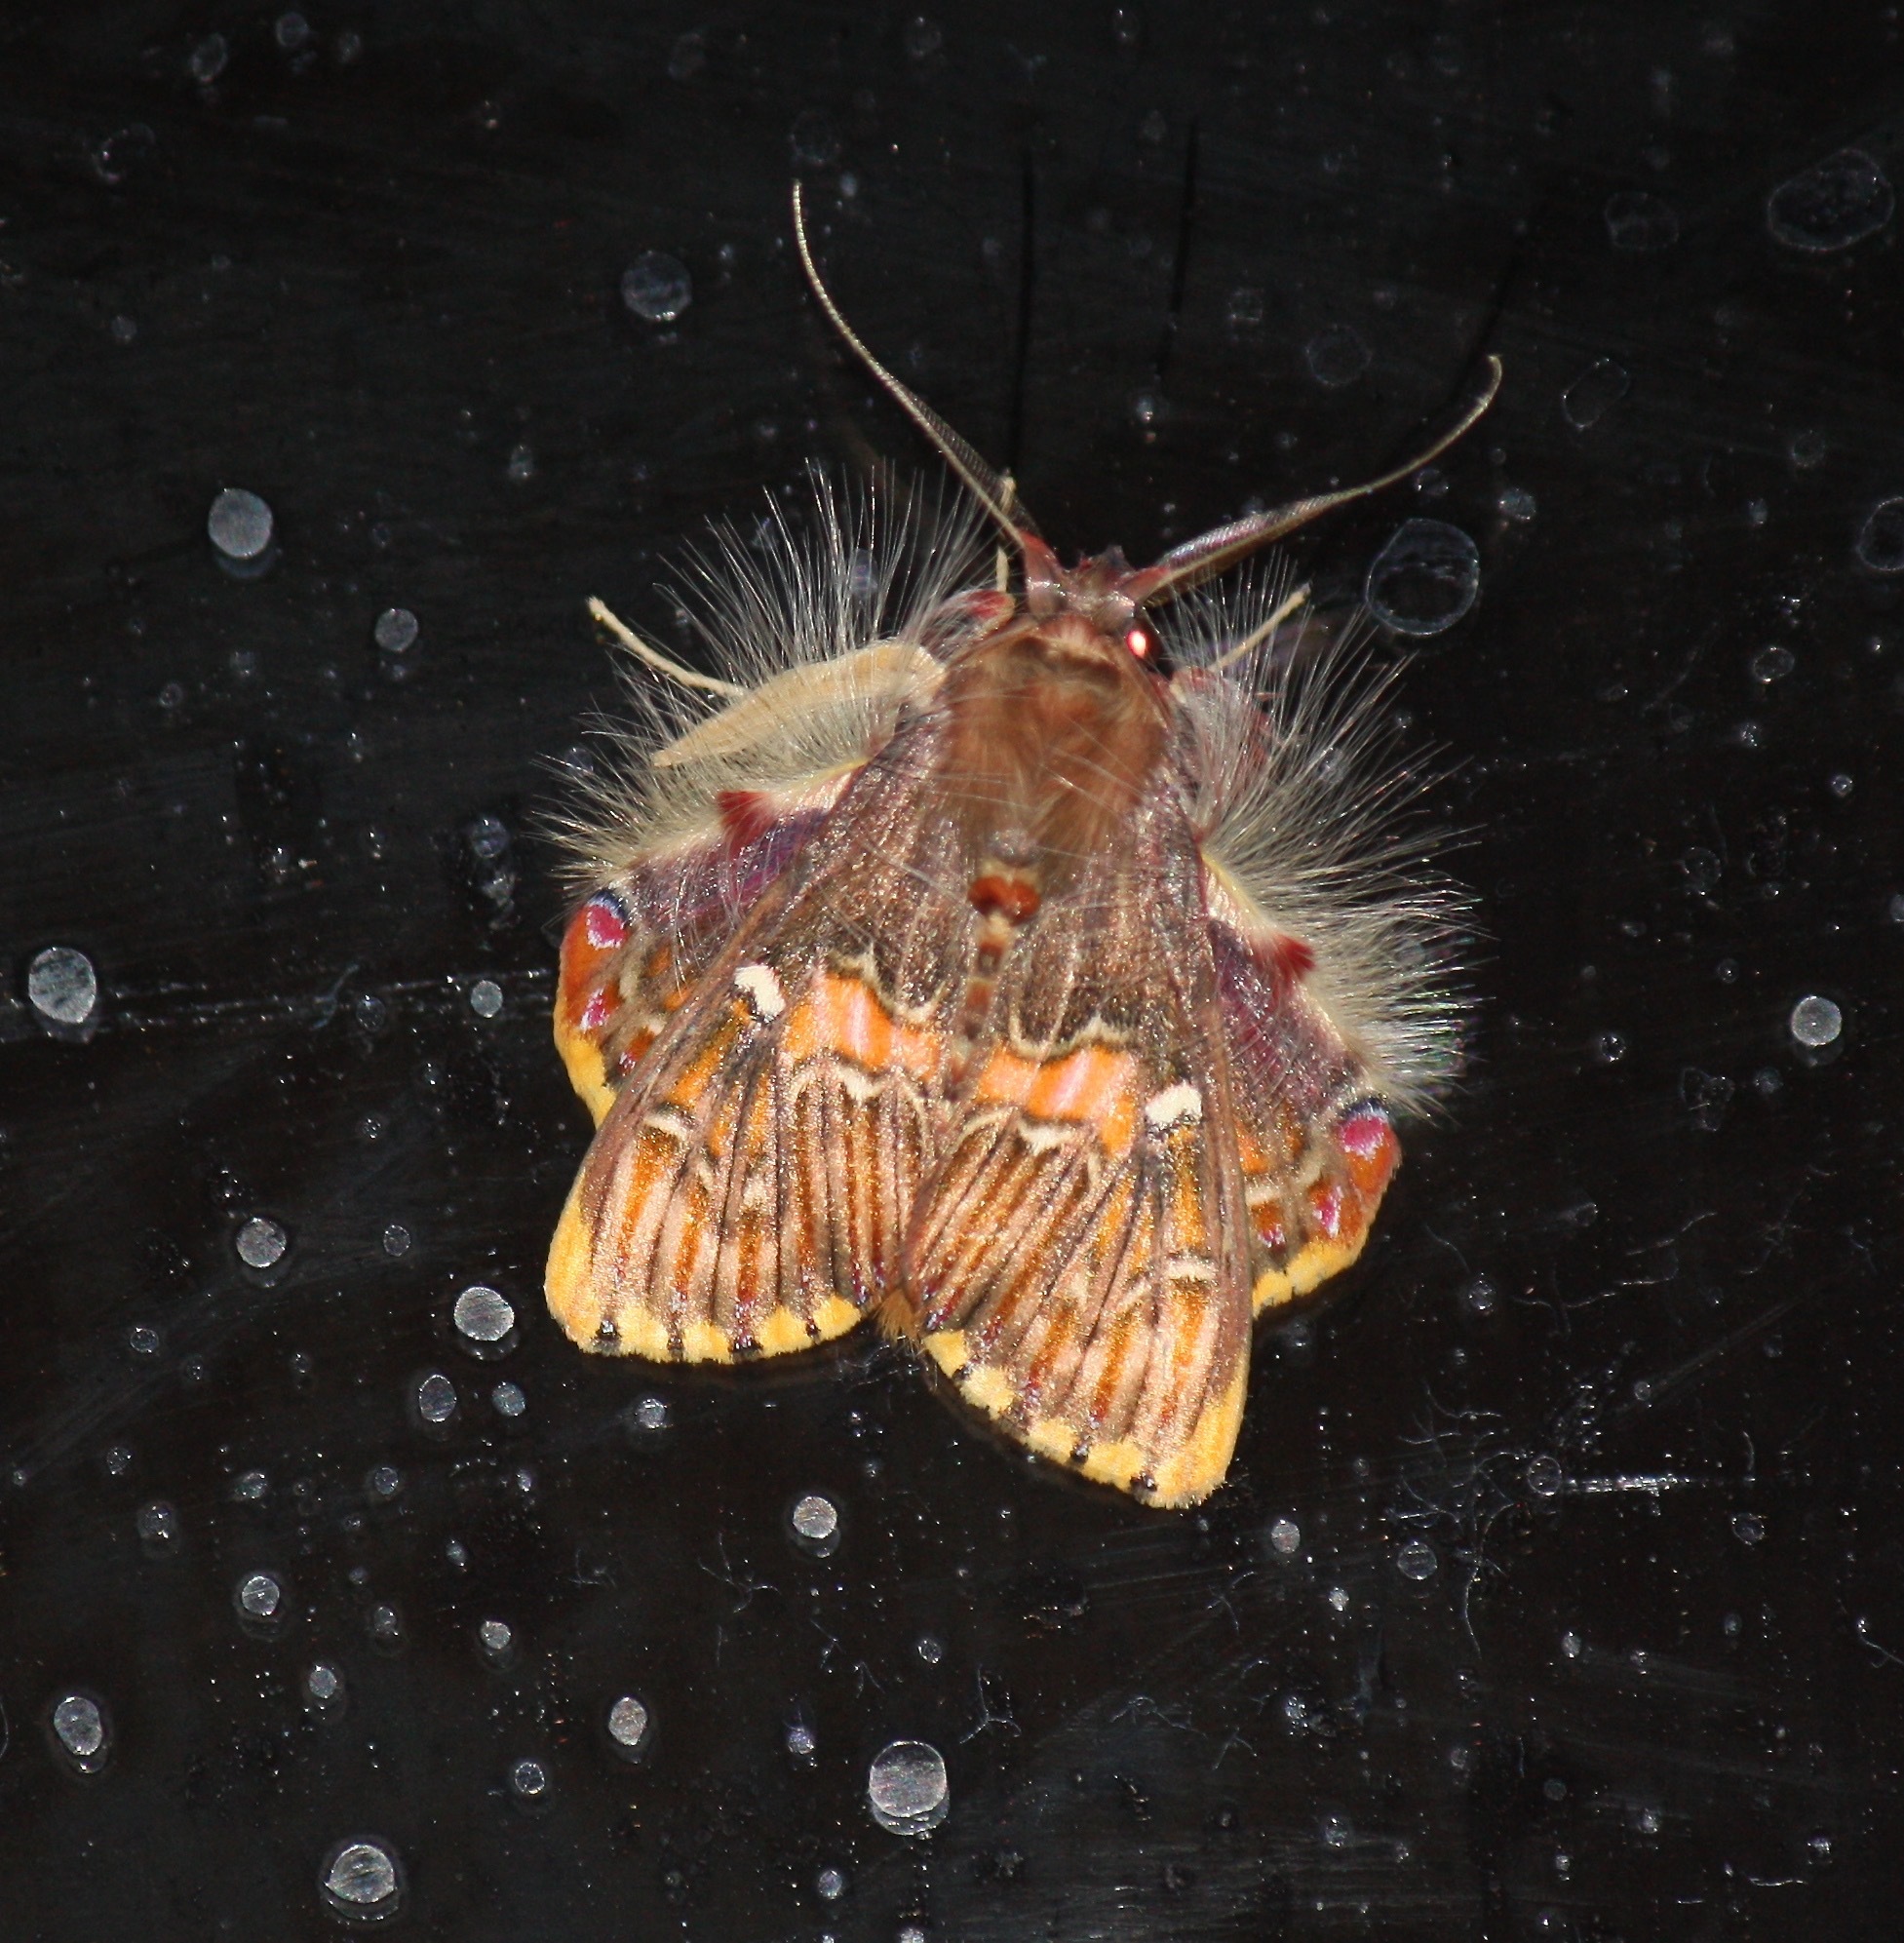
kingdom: Animalia
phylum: Arthropoda
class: Insecta
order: Lepidoptera
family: Erebidae
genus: Sosxetra
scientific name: Sosxetra grata
